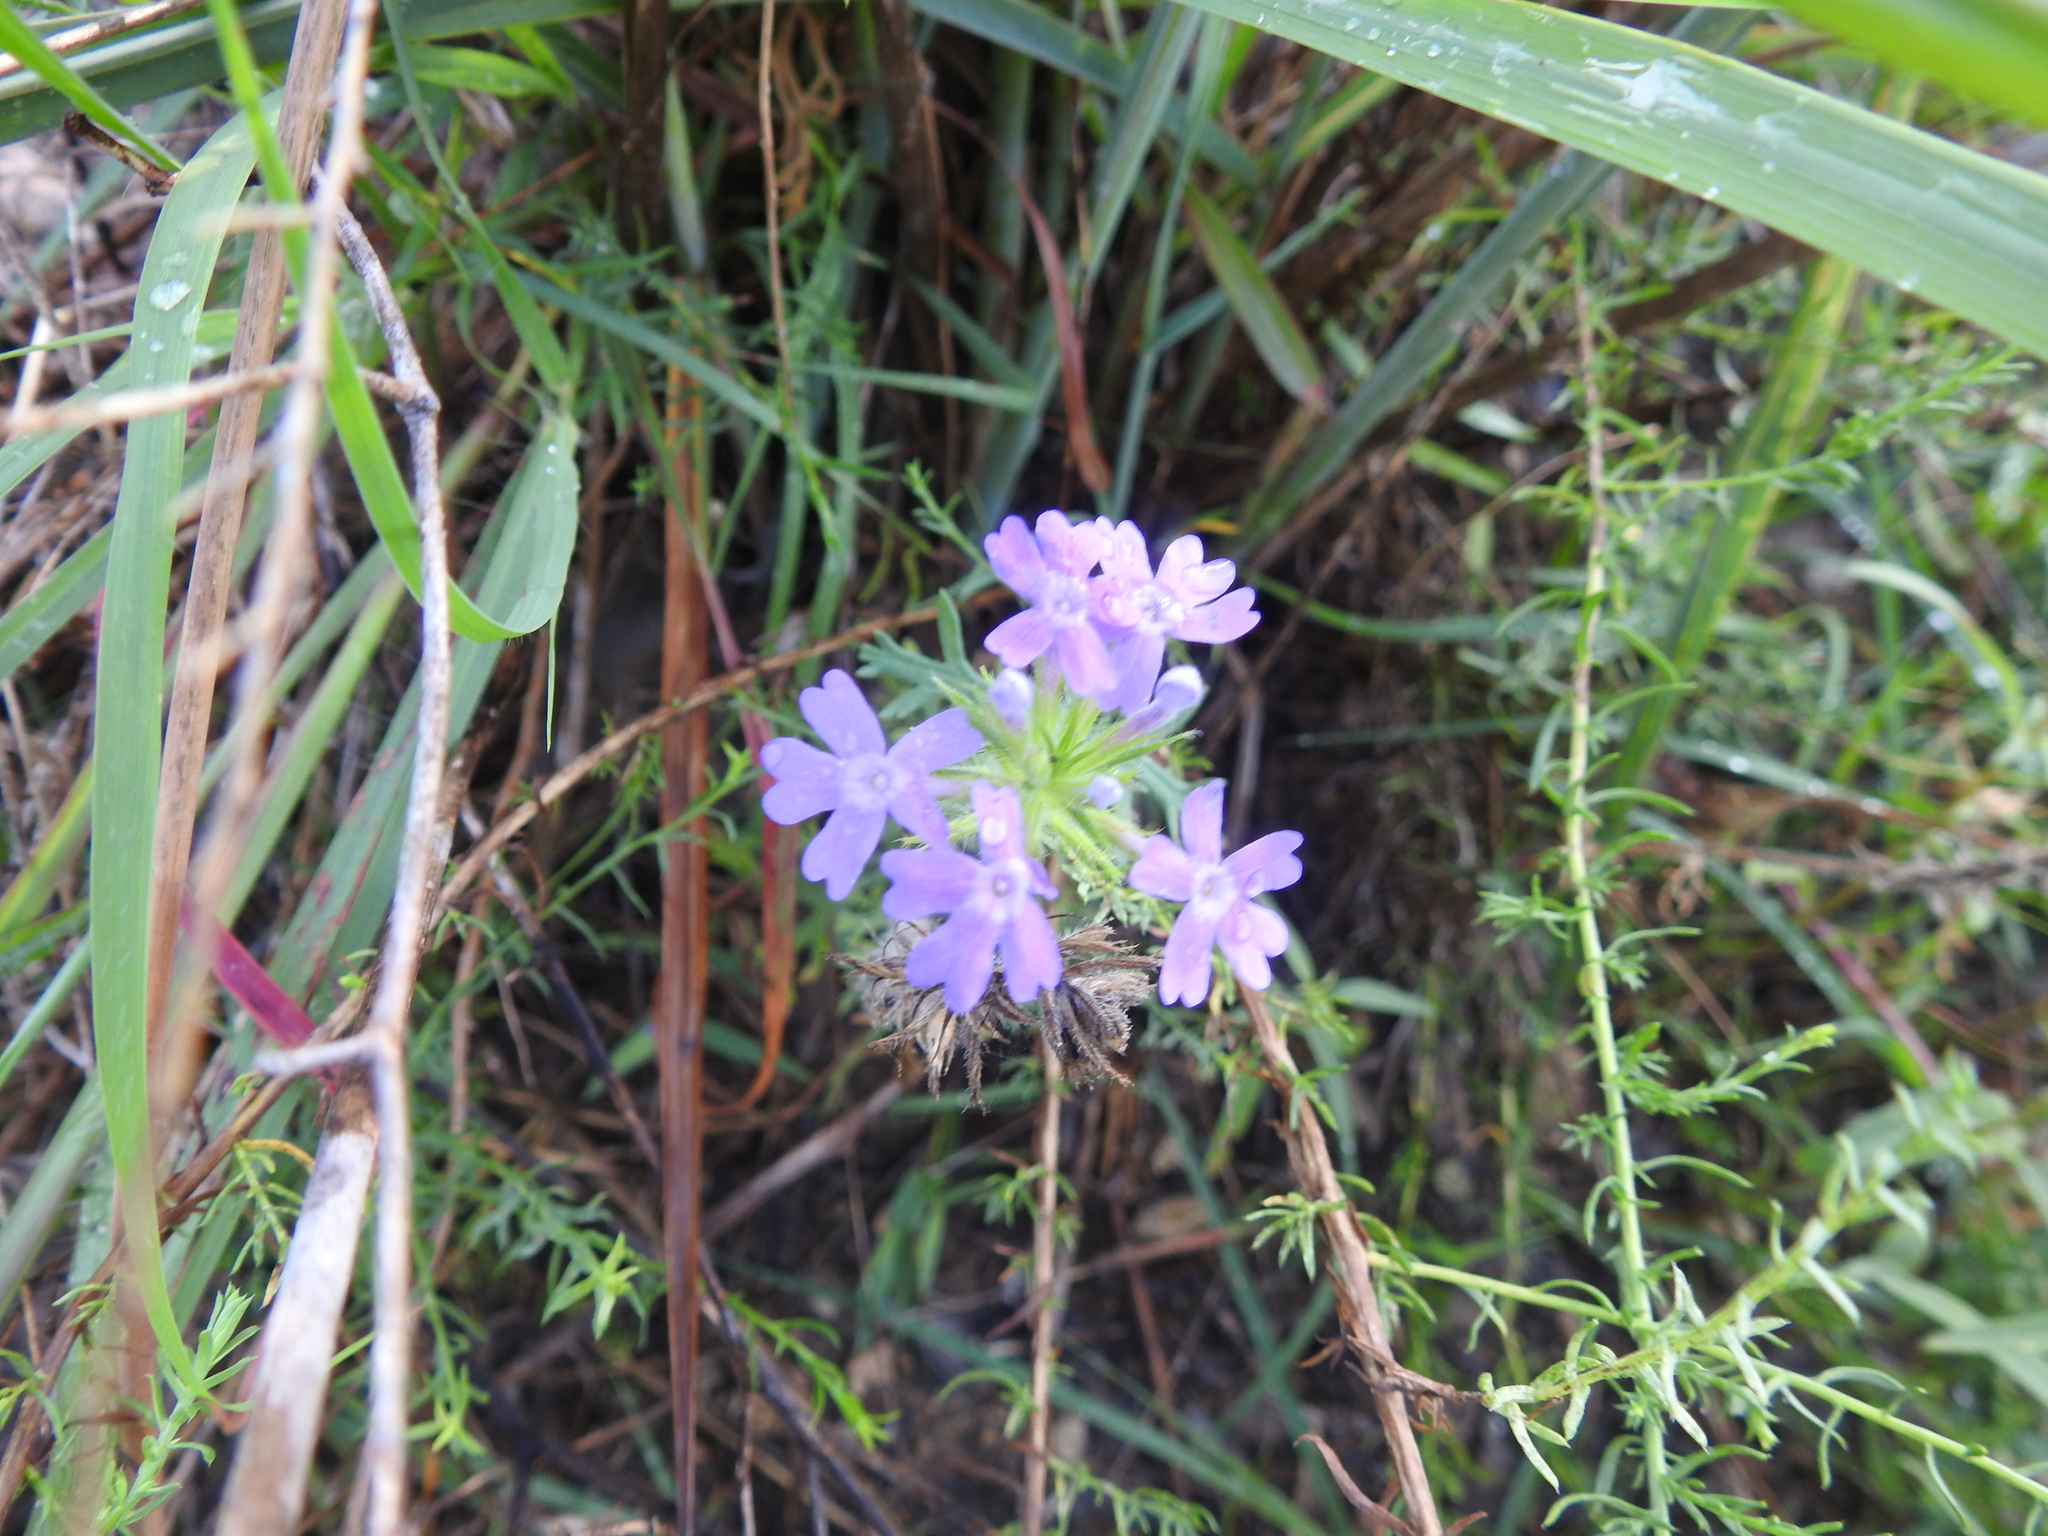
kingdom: Plantae
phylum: Tracheophyta
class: Magnoliopsida
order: Lamiales
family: Verbenaceae
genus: Verbena
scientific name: Verbena bipinnatifida
